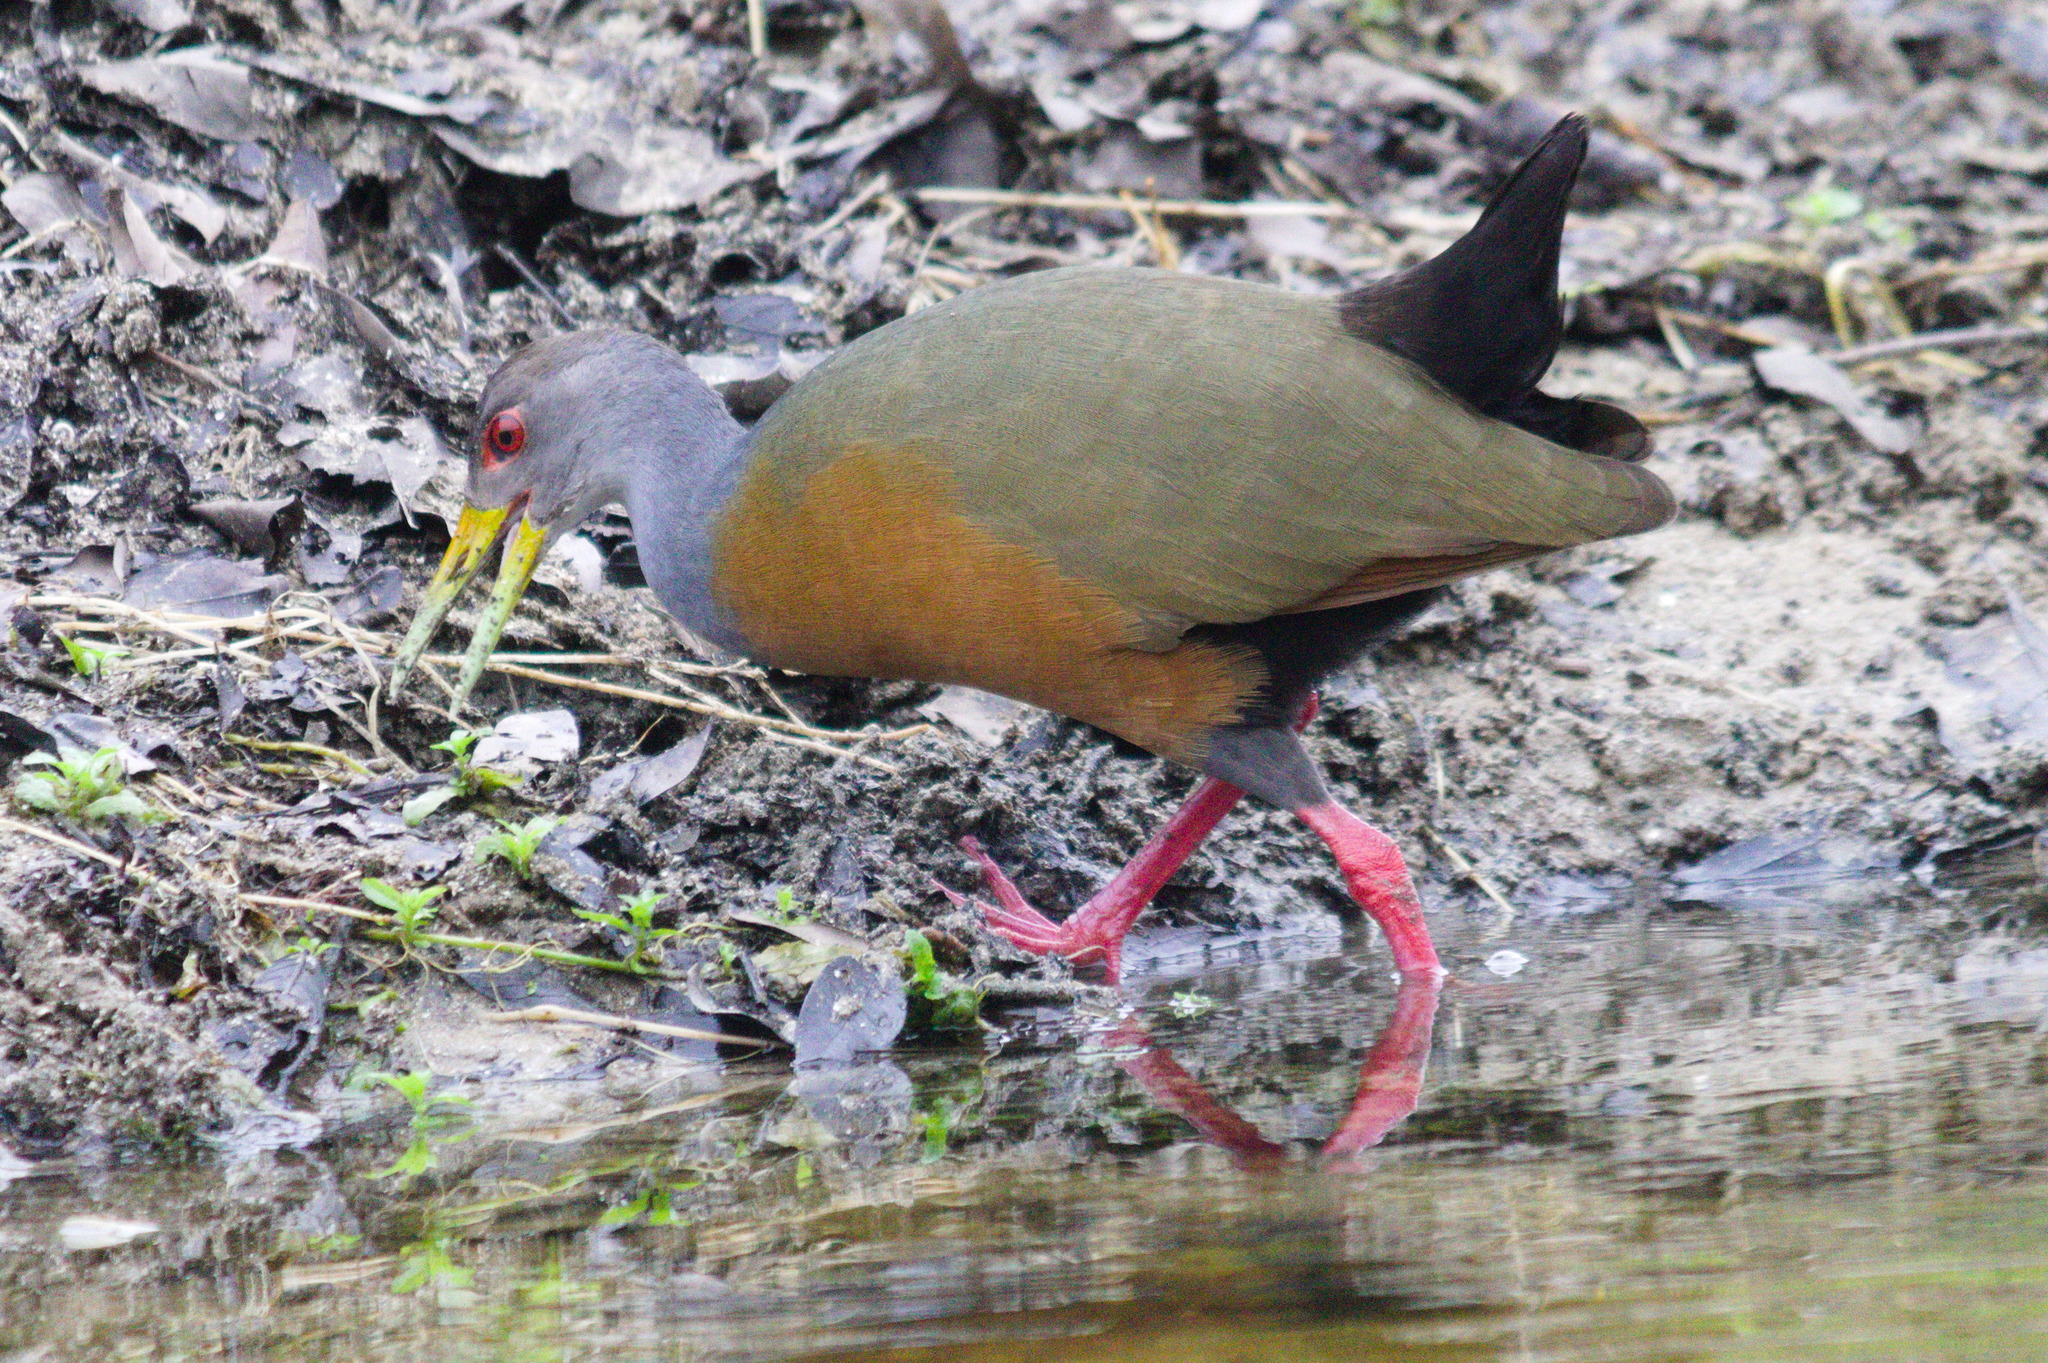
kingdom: Animalia
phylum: Chordata
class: Aves
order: Gruiformes
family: Rallidae
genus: Aramides
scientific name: Aramides cajanea
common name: Gray-necked wood-rail
